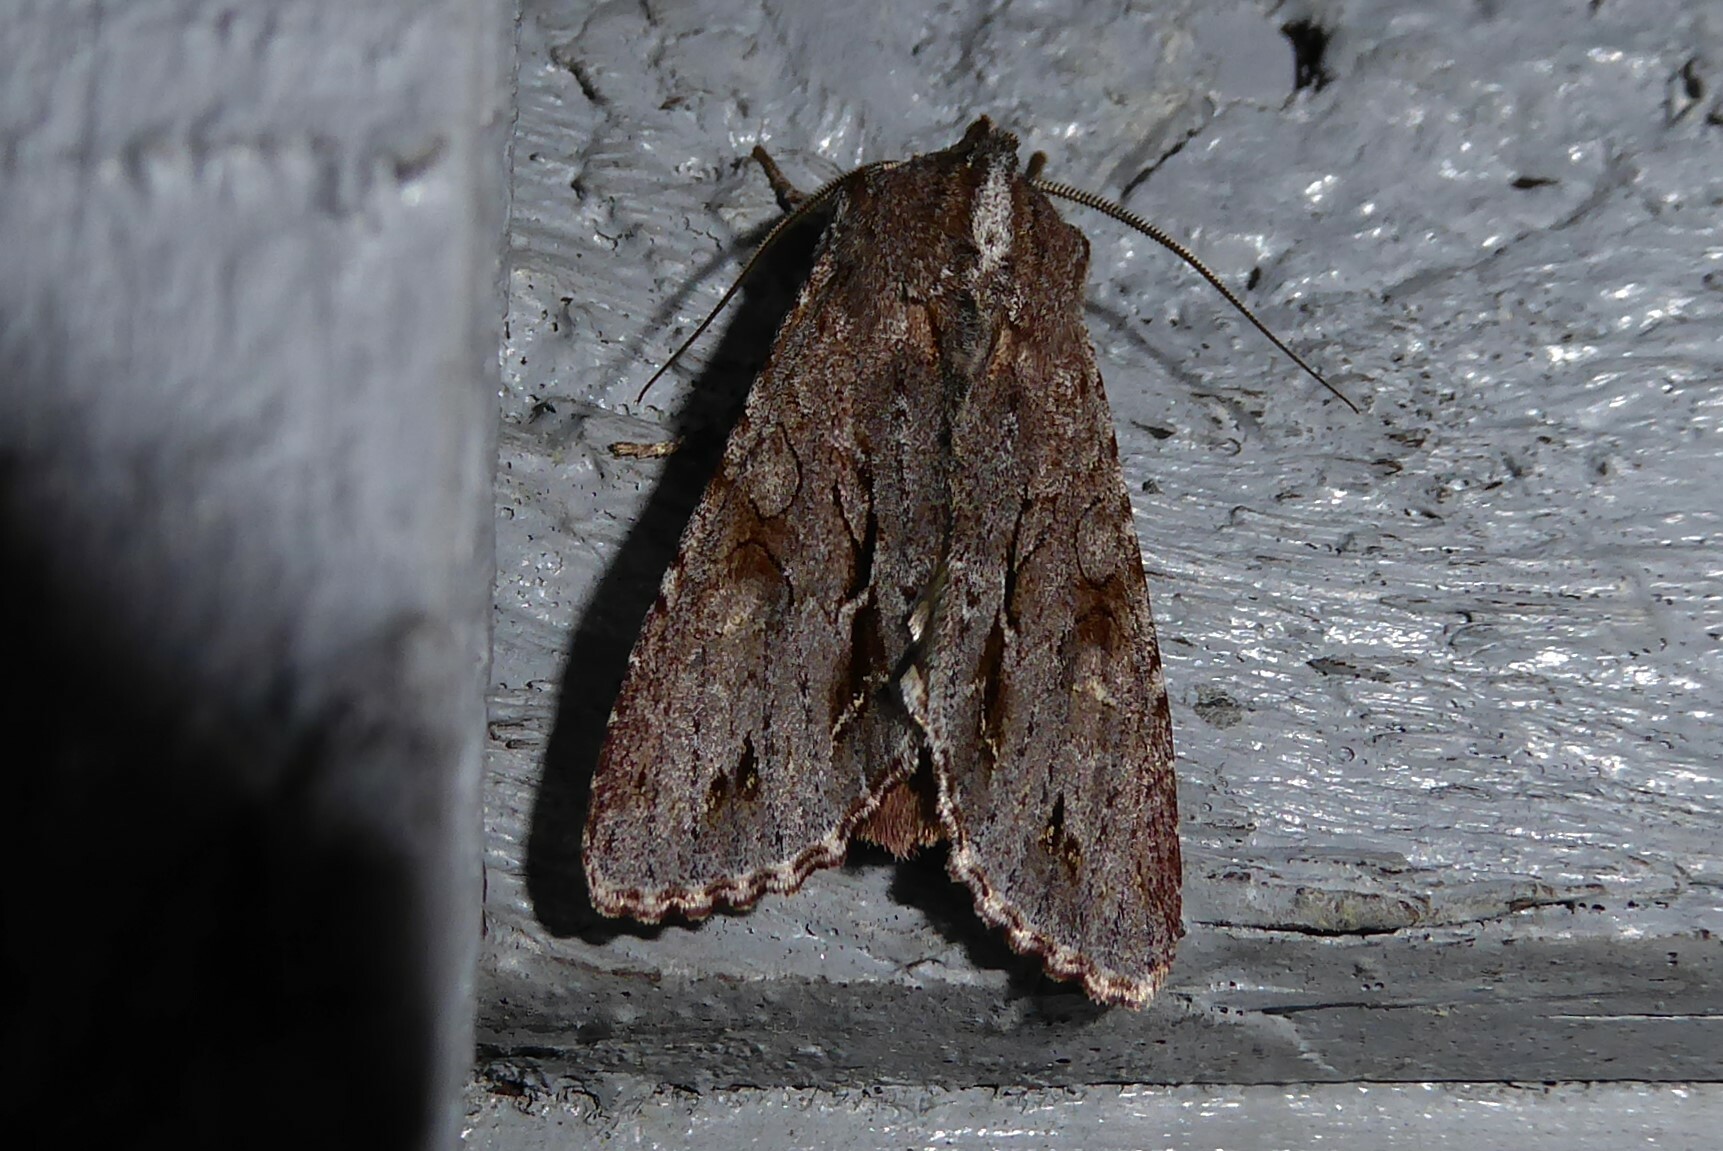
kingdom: Animalia
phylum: Arthropoda
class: Insecta
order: Lepidoptera
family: Noctuidae
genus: Ichneutica
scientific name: Ichneutica
